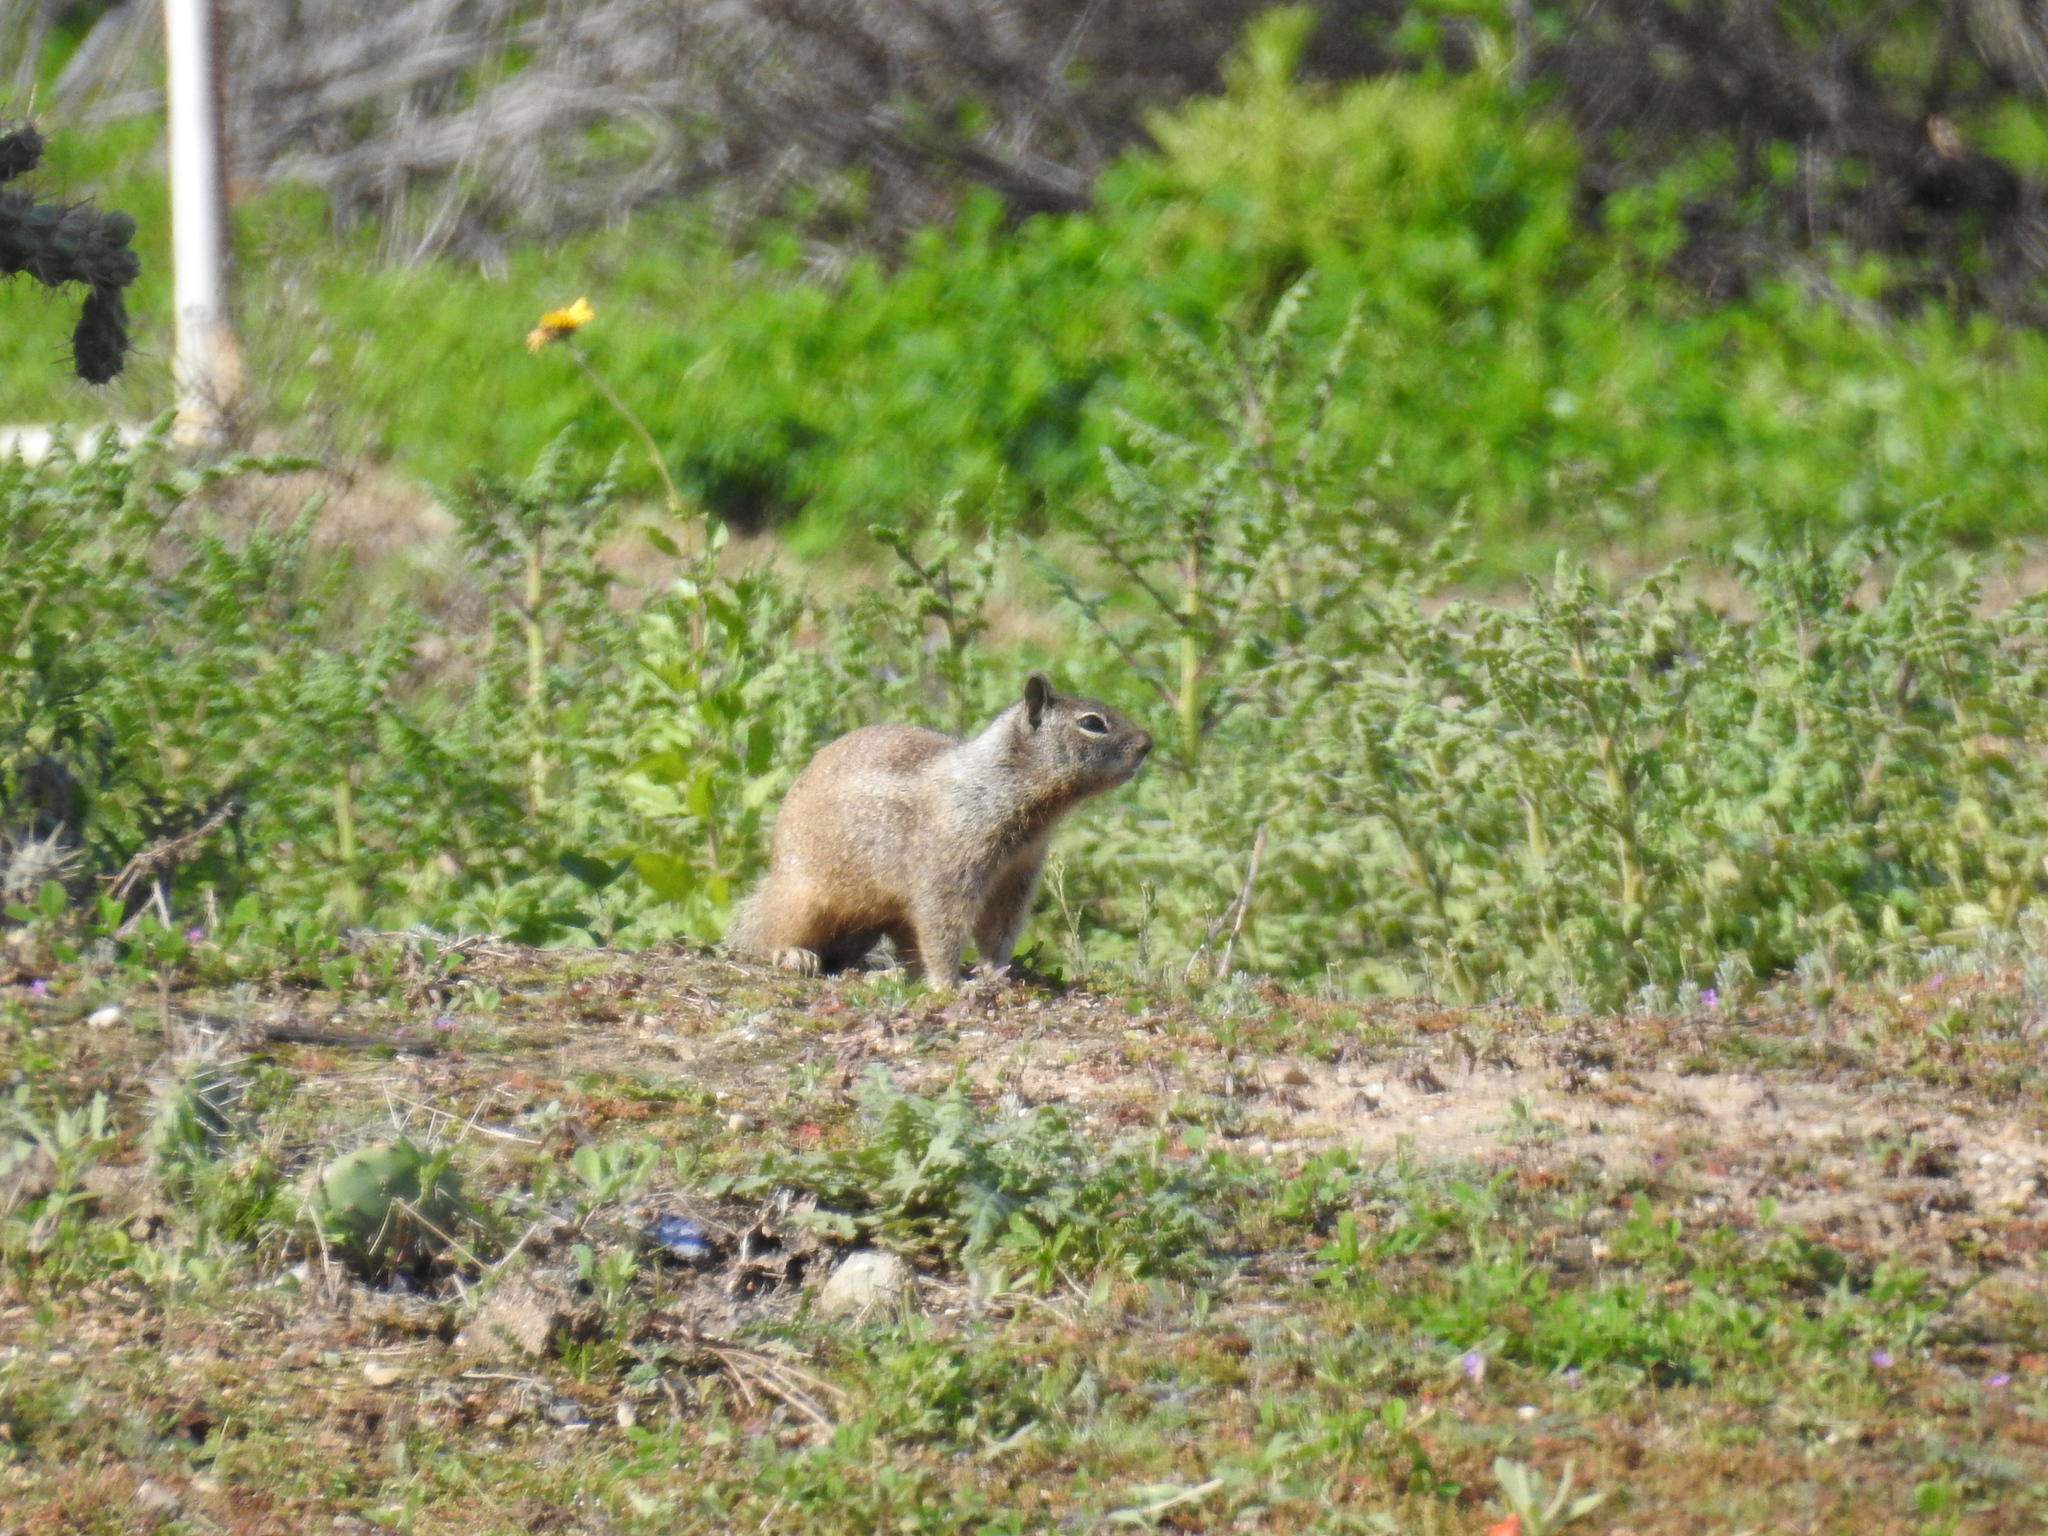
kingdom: Animalia
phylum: Chordata
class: Mammalia
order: Rodentia
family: Sciuridae
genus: Otospermophilus
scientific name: Otospermophilus beecheyi
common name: California ground squirrel
